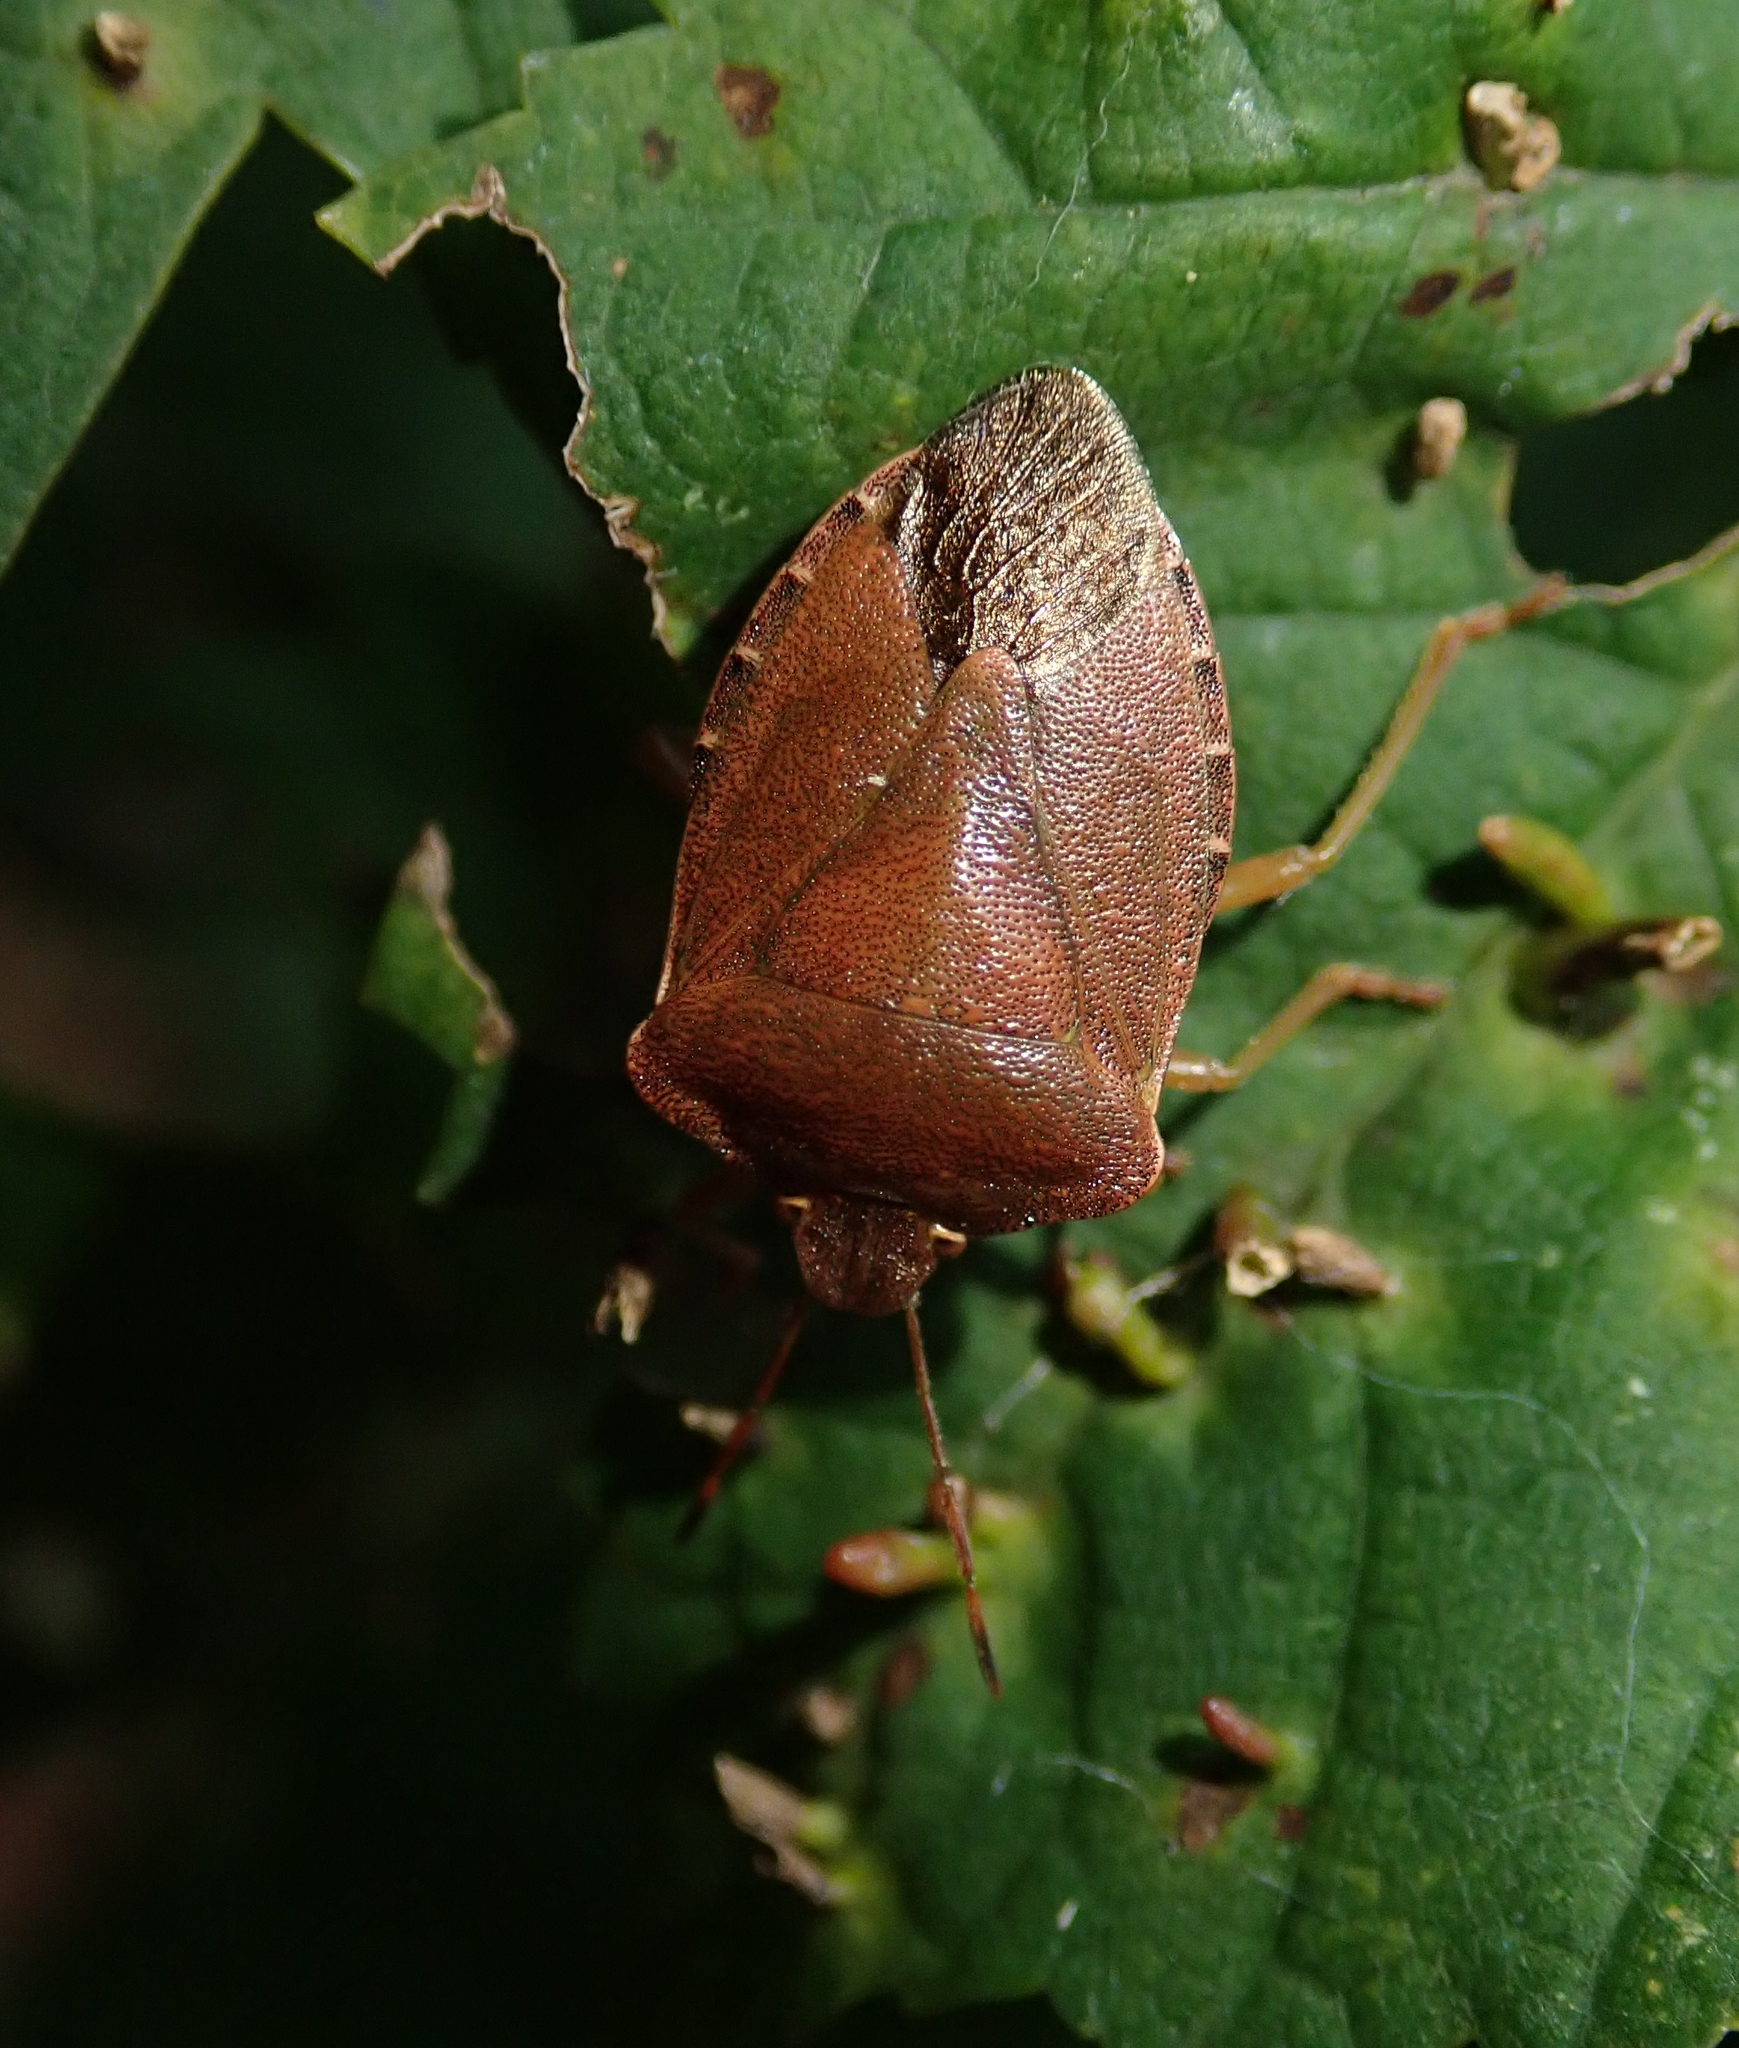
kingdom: Animalia
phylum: Arthropoda
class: Insecta
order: Hemiptera
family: Pentatomidae
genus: Palomena
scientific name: Palomena prasina
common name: Green shieldbug
